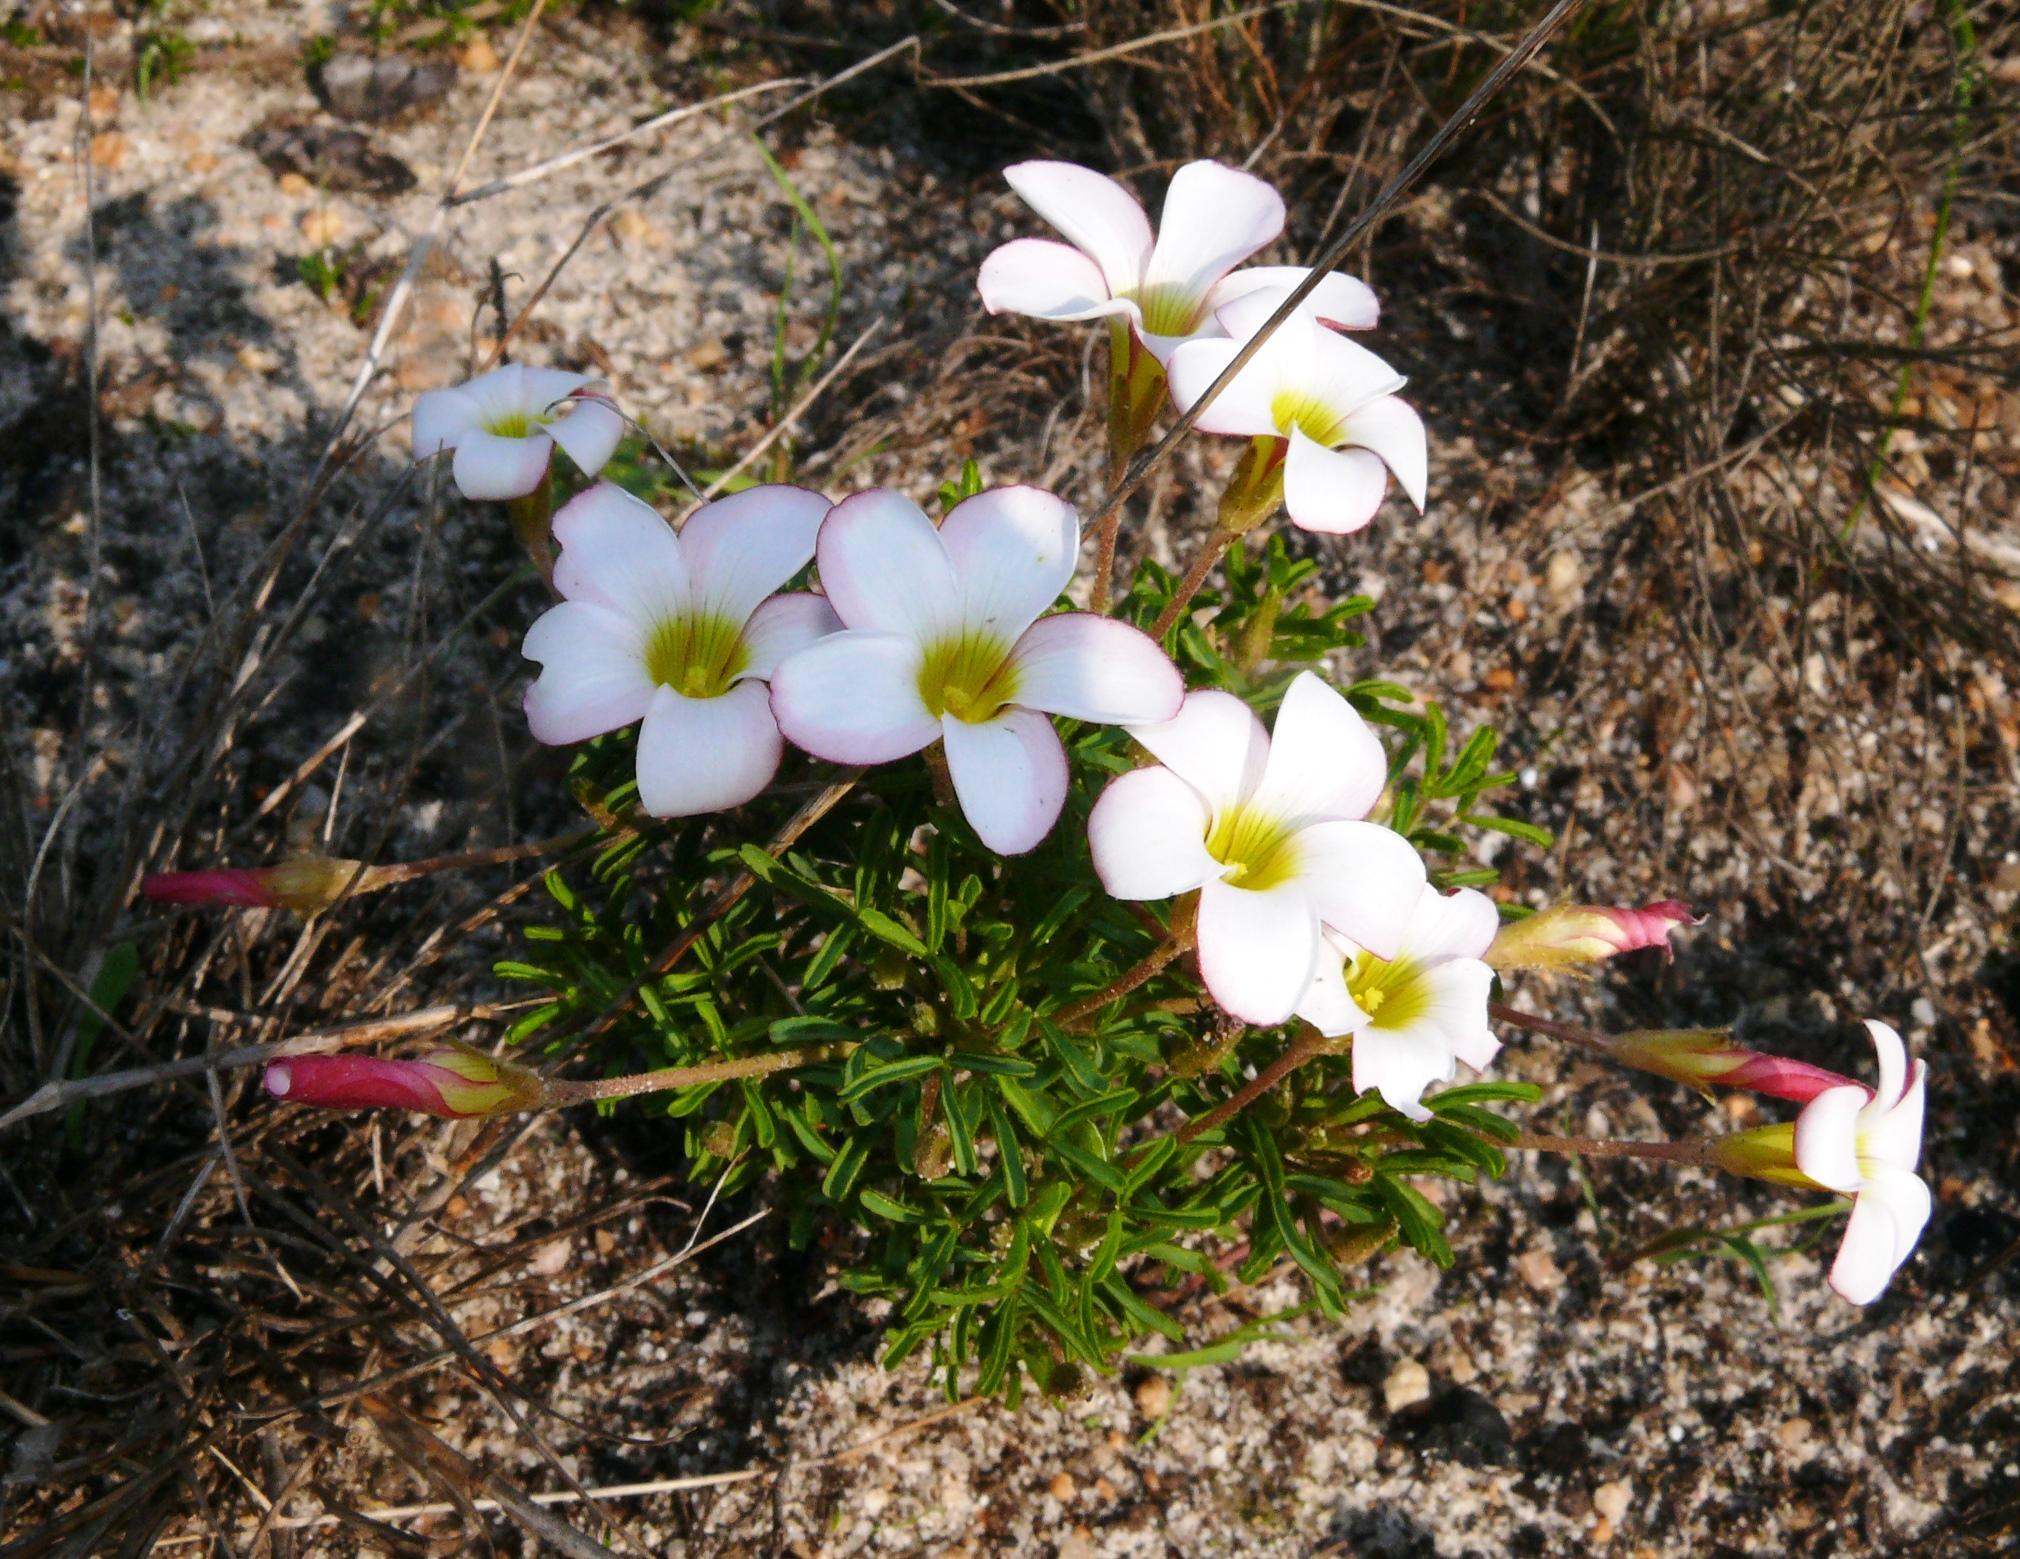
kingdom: Plantae
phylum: Tracheophyta
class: Magnoliopsida
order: Oxalidales
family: Oxalidaceae
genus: Oxalis
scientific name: Oxalis versicolor
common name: Peppermint rock oxalis
